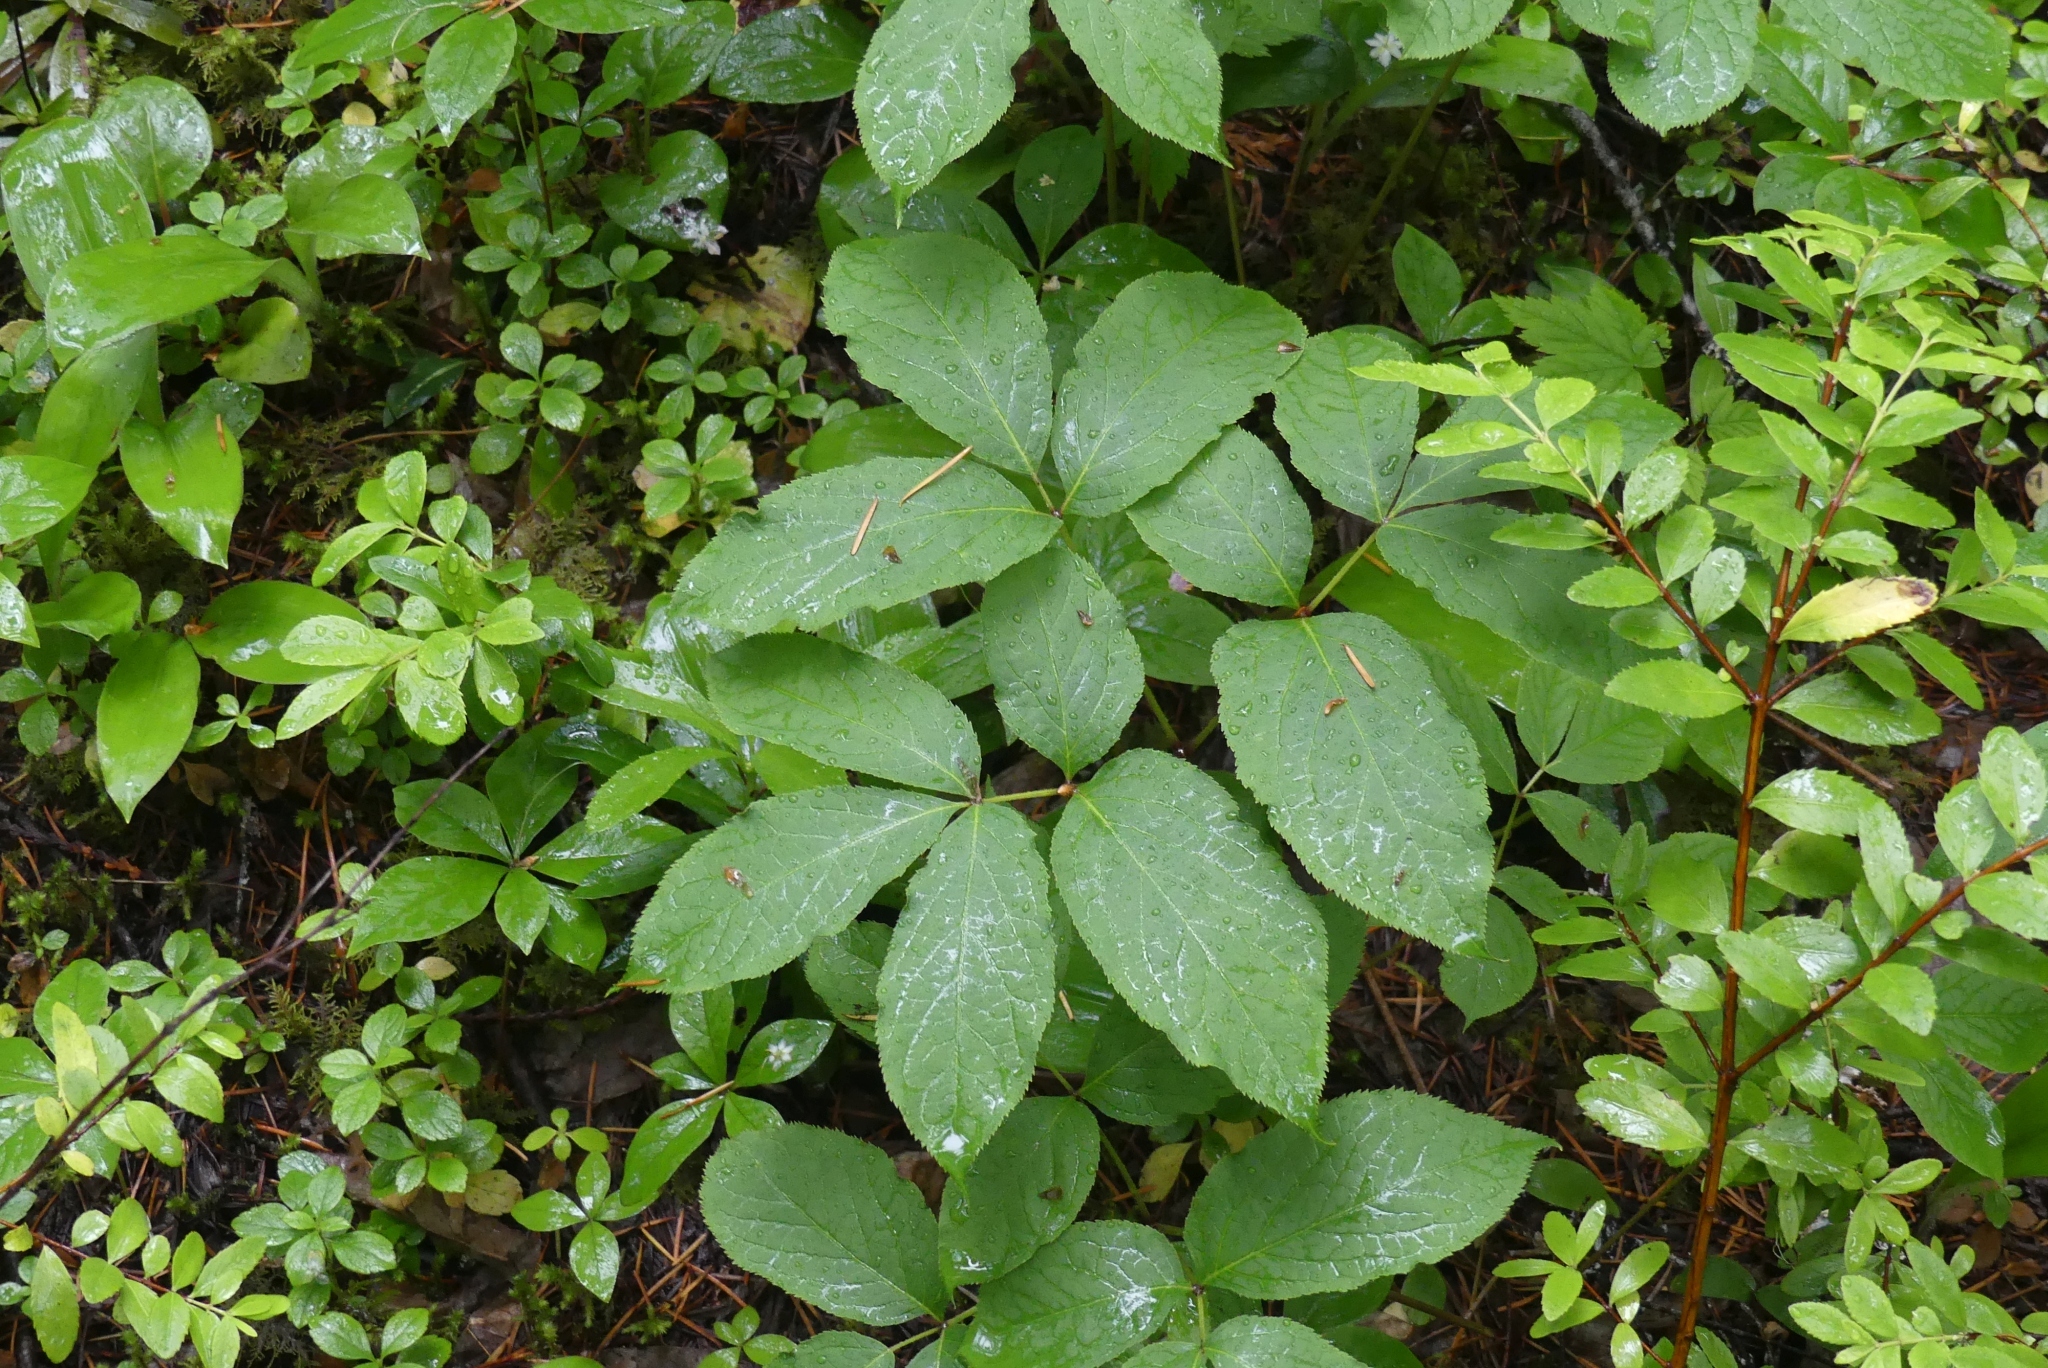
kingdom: Plantae
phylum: Tracheophyta
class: Magnoliopsida
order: Apiales
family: Araliaceae
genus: Aralia
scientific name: Aralia nudicaulis
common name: Wild sarsaparilla
